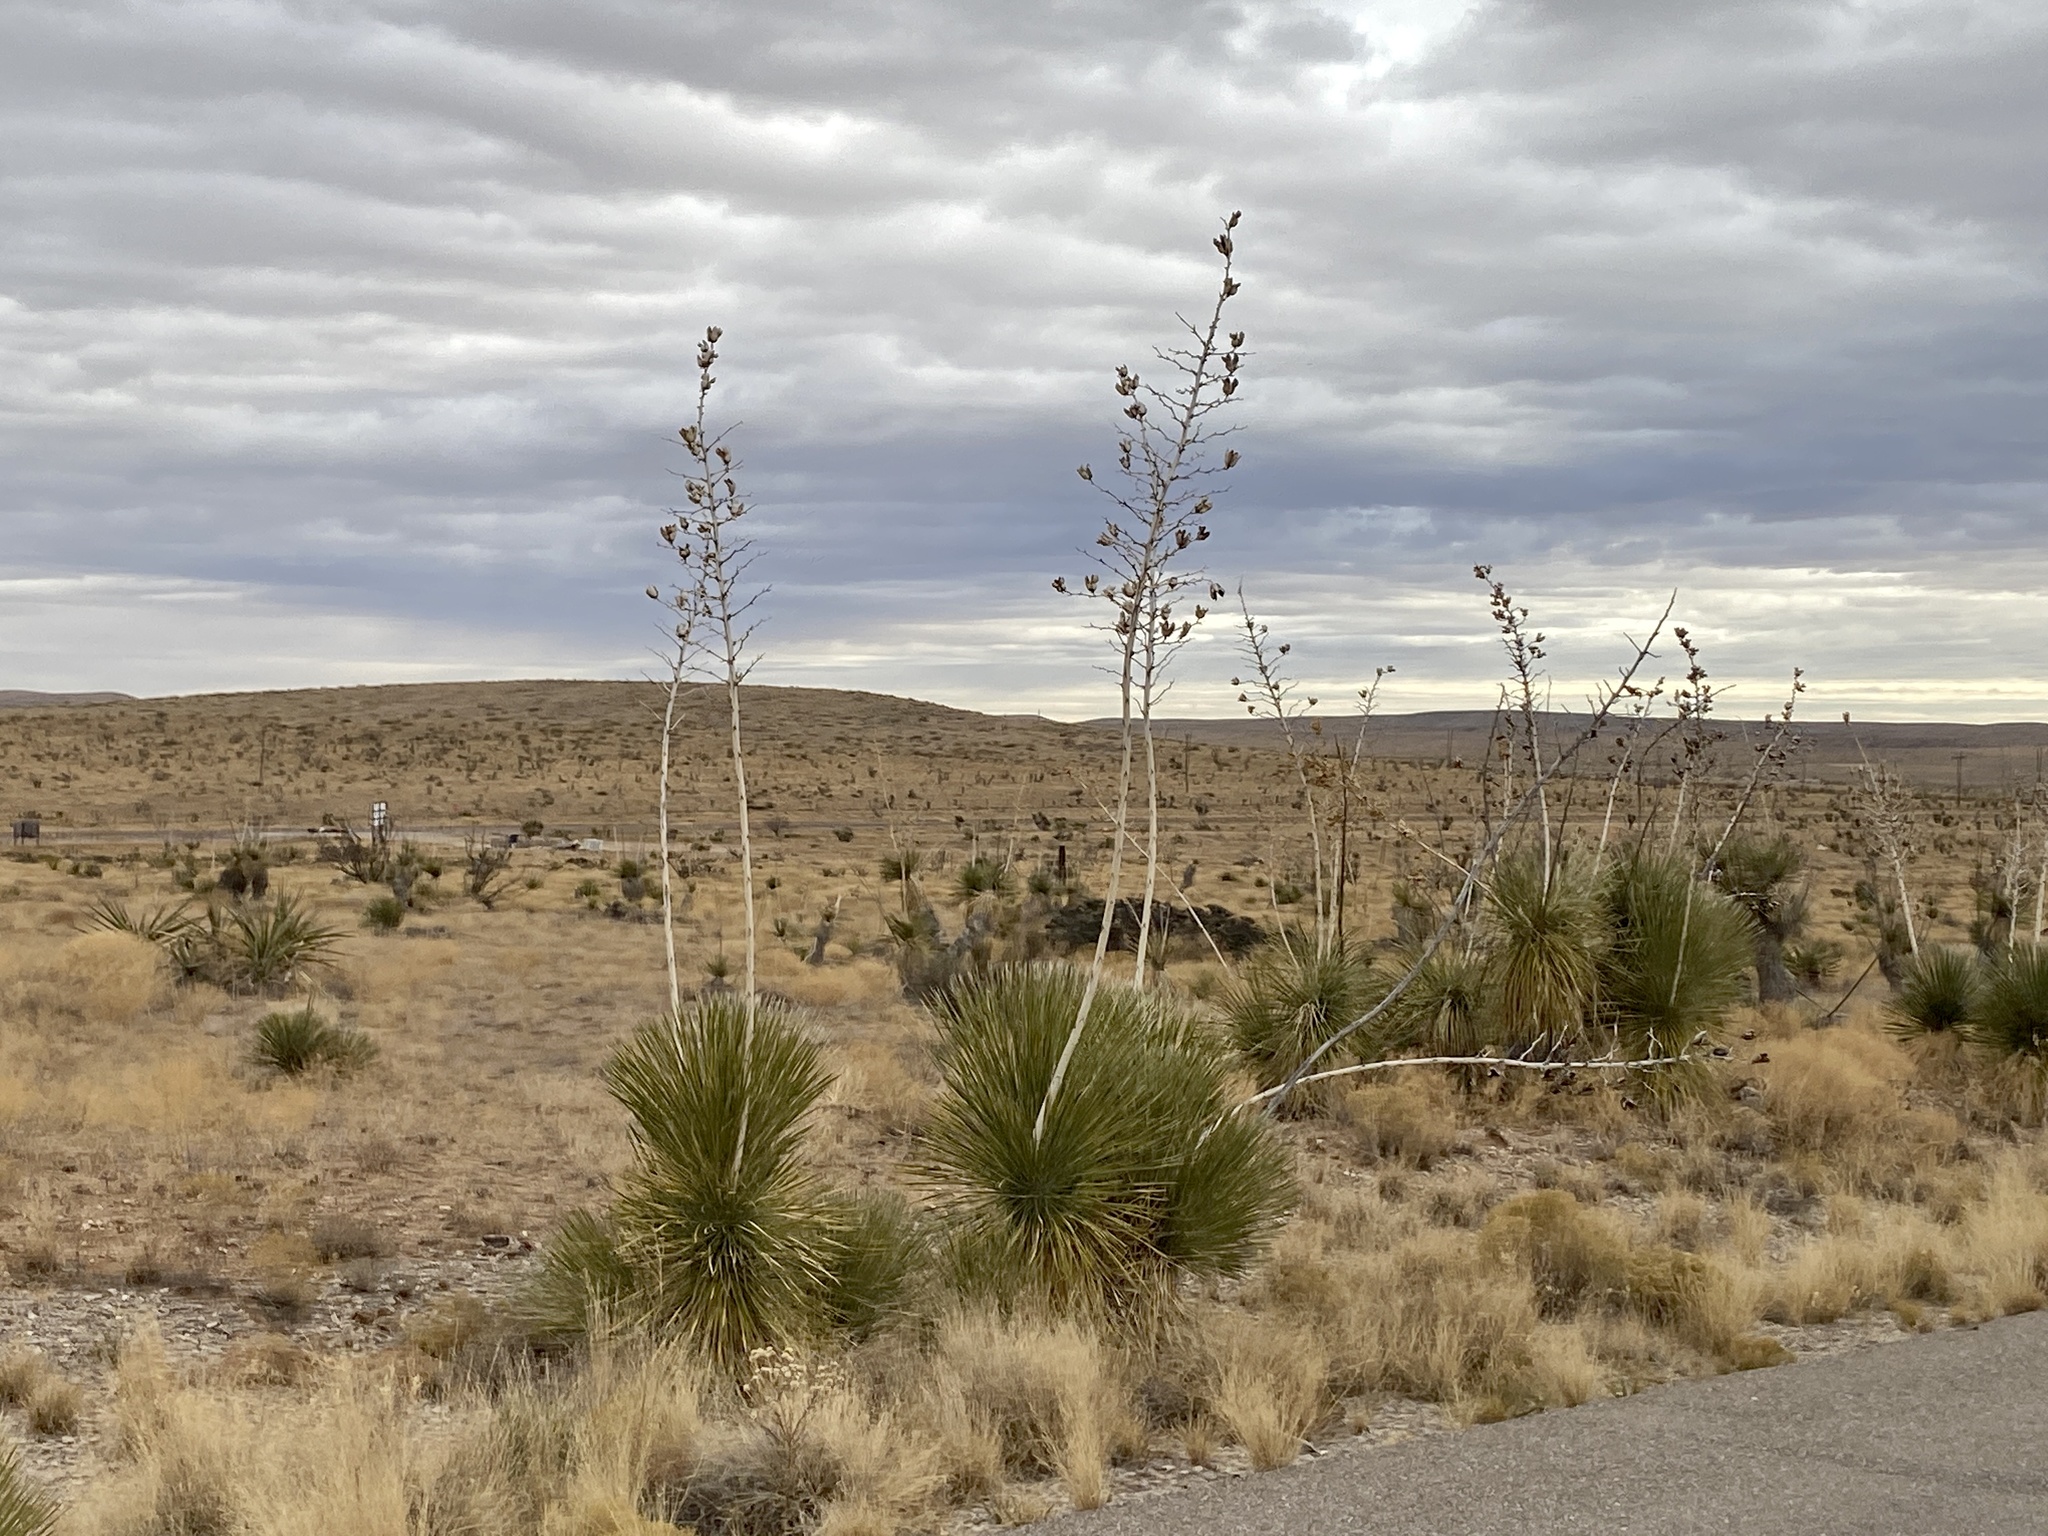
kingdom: Plantae
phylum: Tracheophyta
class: Liliopsida
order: Asparagales
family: Asparagaceae
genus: Yucca
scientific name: Yucca elata
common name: Palmella
